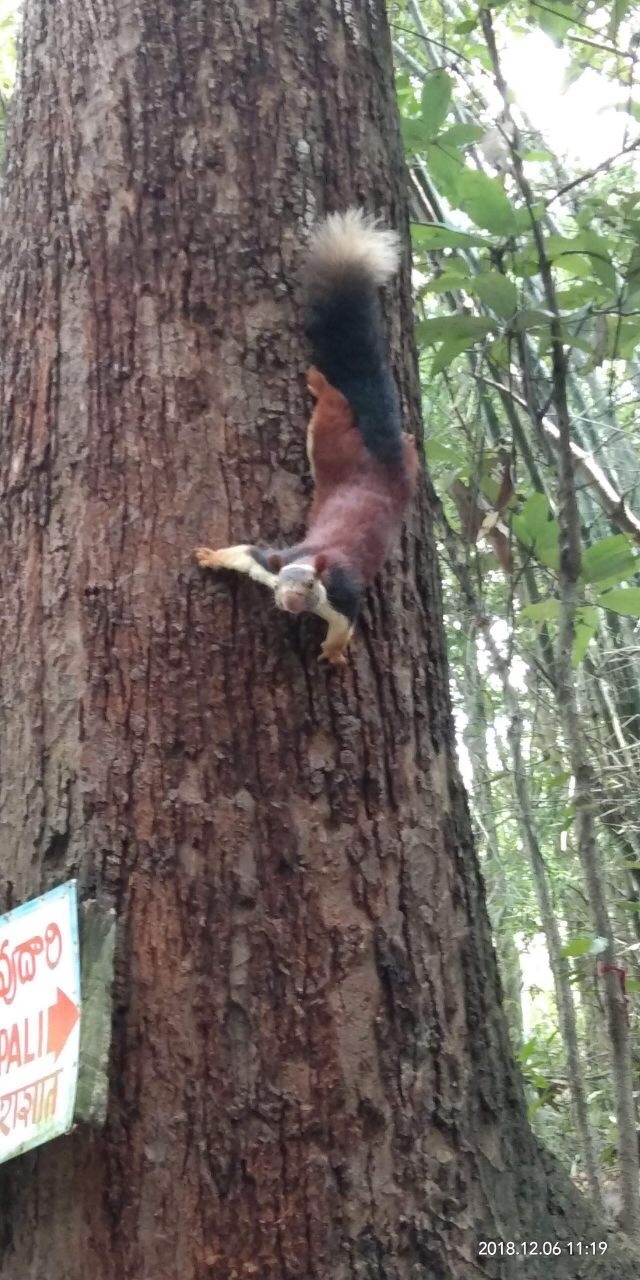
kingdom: Animalia
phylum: Chordata
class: Mammalia
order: Rodentia
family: Sciuridae
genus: Ratufa
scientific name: Ratufa indica
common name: Indian giant squirrel
